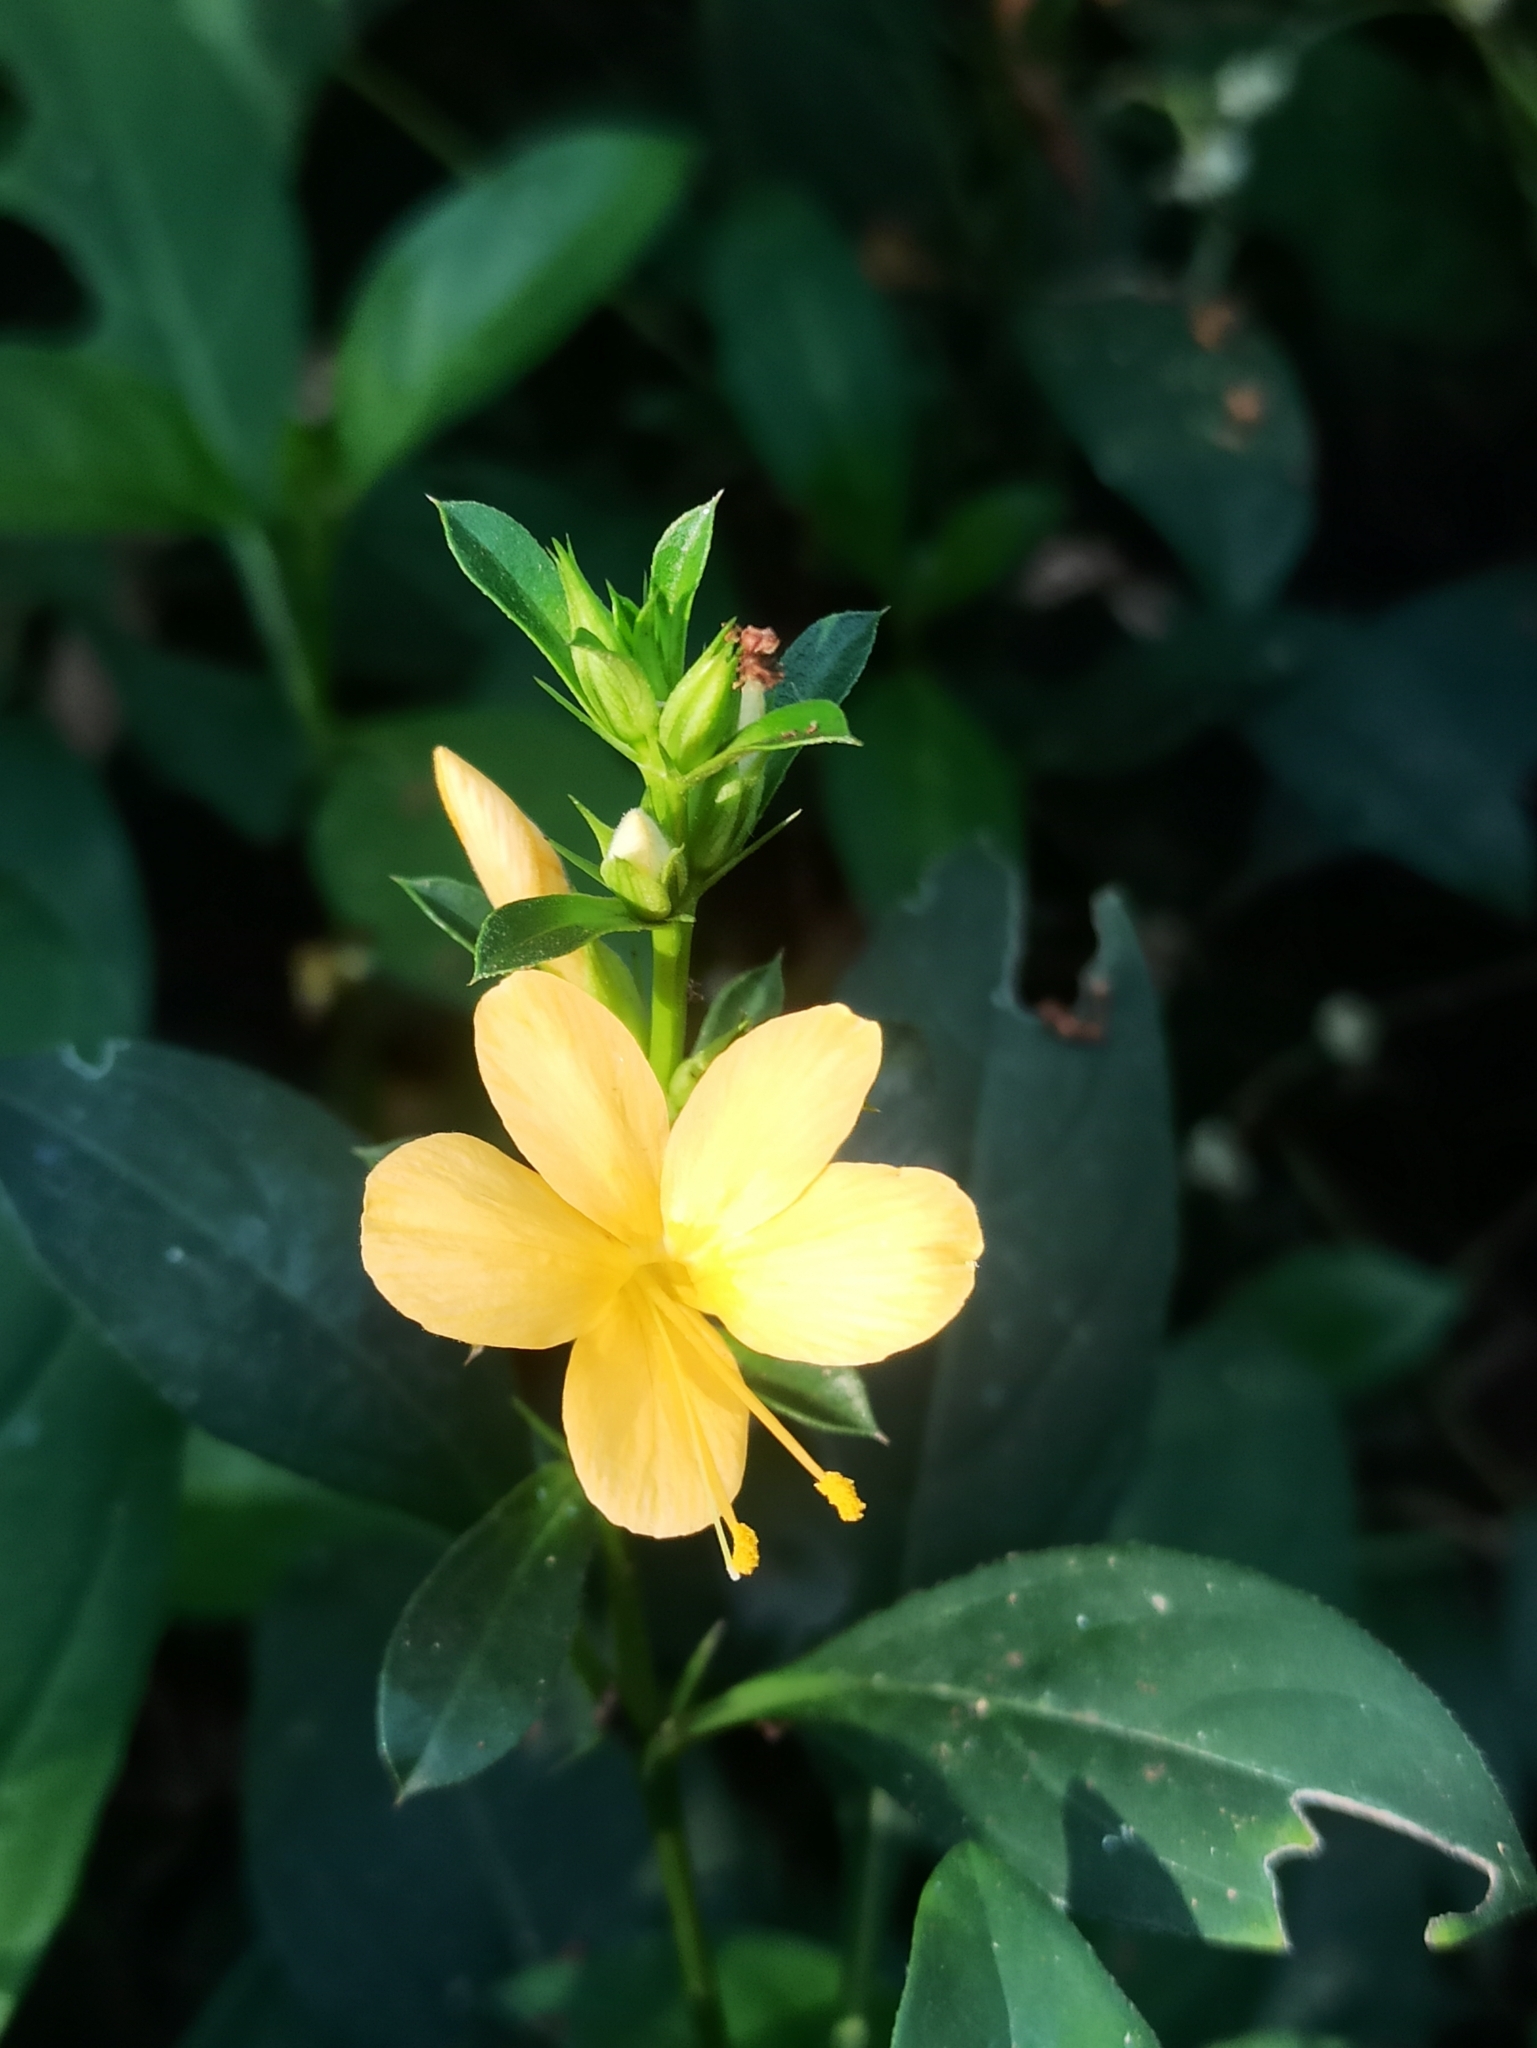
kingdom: Plantae
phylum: Tracheophyta
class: Magnoliopsida
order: Lamiales
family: Acanthaceae
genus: Barleria
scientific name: Barleria prionitis
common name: Barleria
